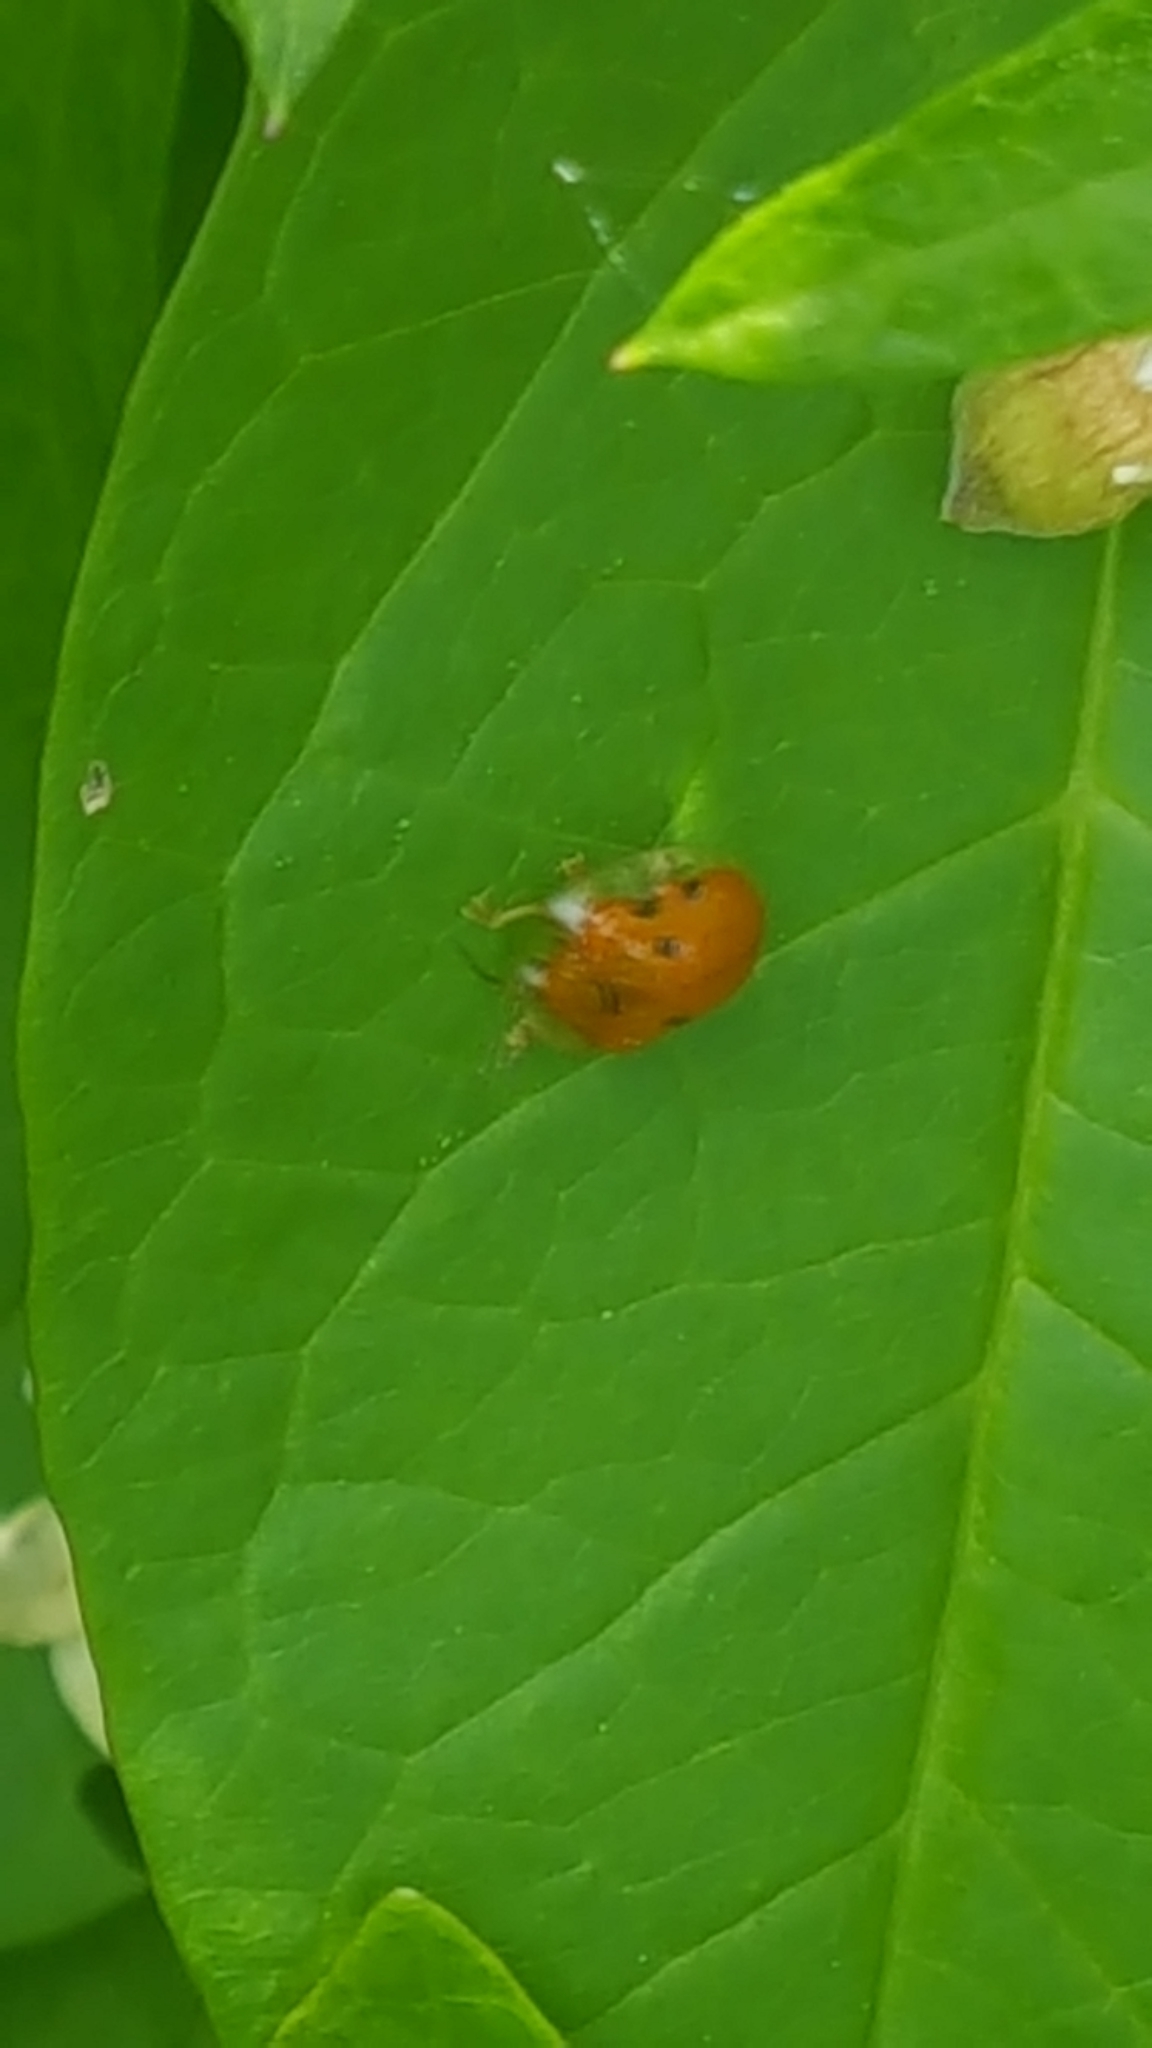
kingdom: Animalia
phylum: Arthropoda
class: Insecta
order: Coleoptera
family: Chrysomelidae
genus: Charidotella
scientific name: Charidotella sexpunctata
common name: Golden tortoise beetle
